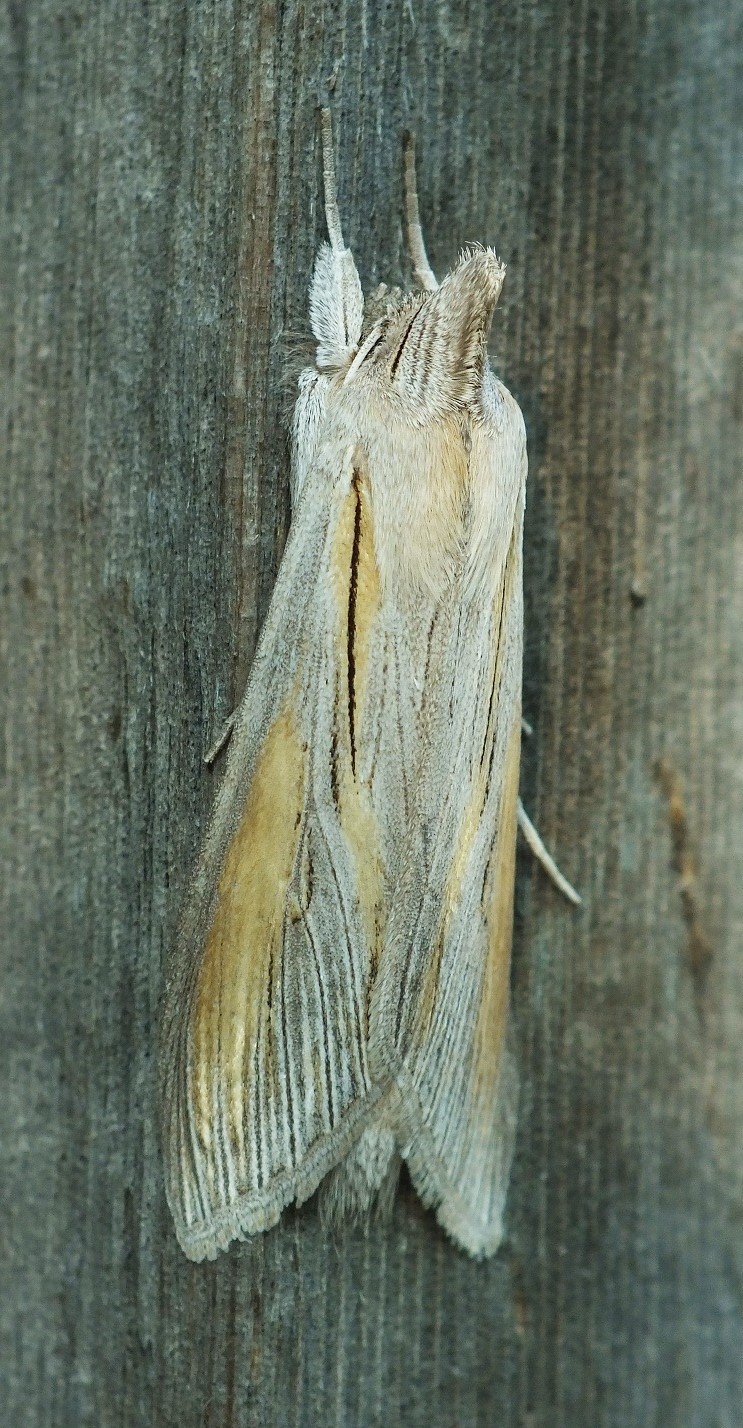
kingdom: Animalia
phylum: Arthropoda
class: Insecta
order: Lepidoptera
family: Noctuidae
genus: Cucullia
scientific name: Cucullia biornata
